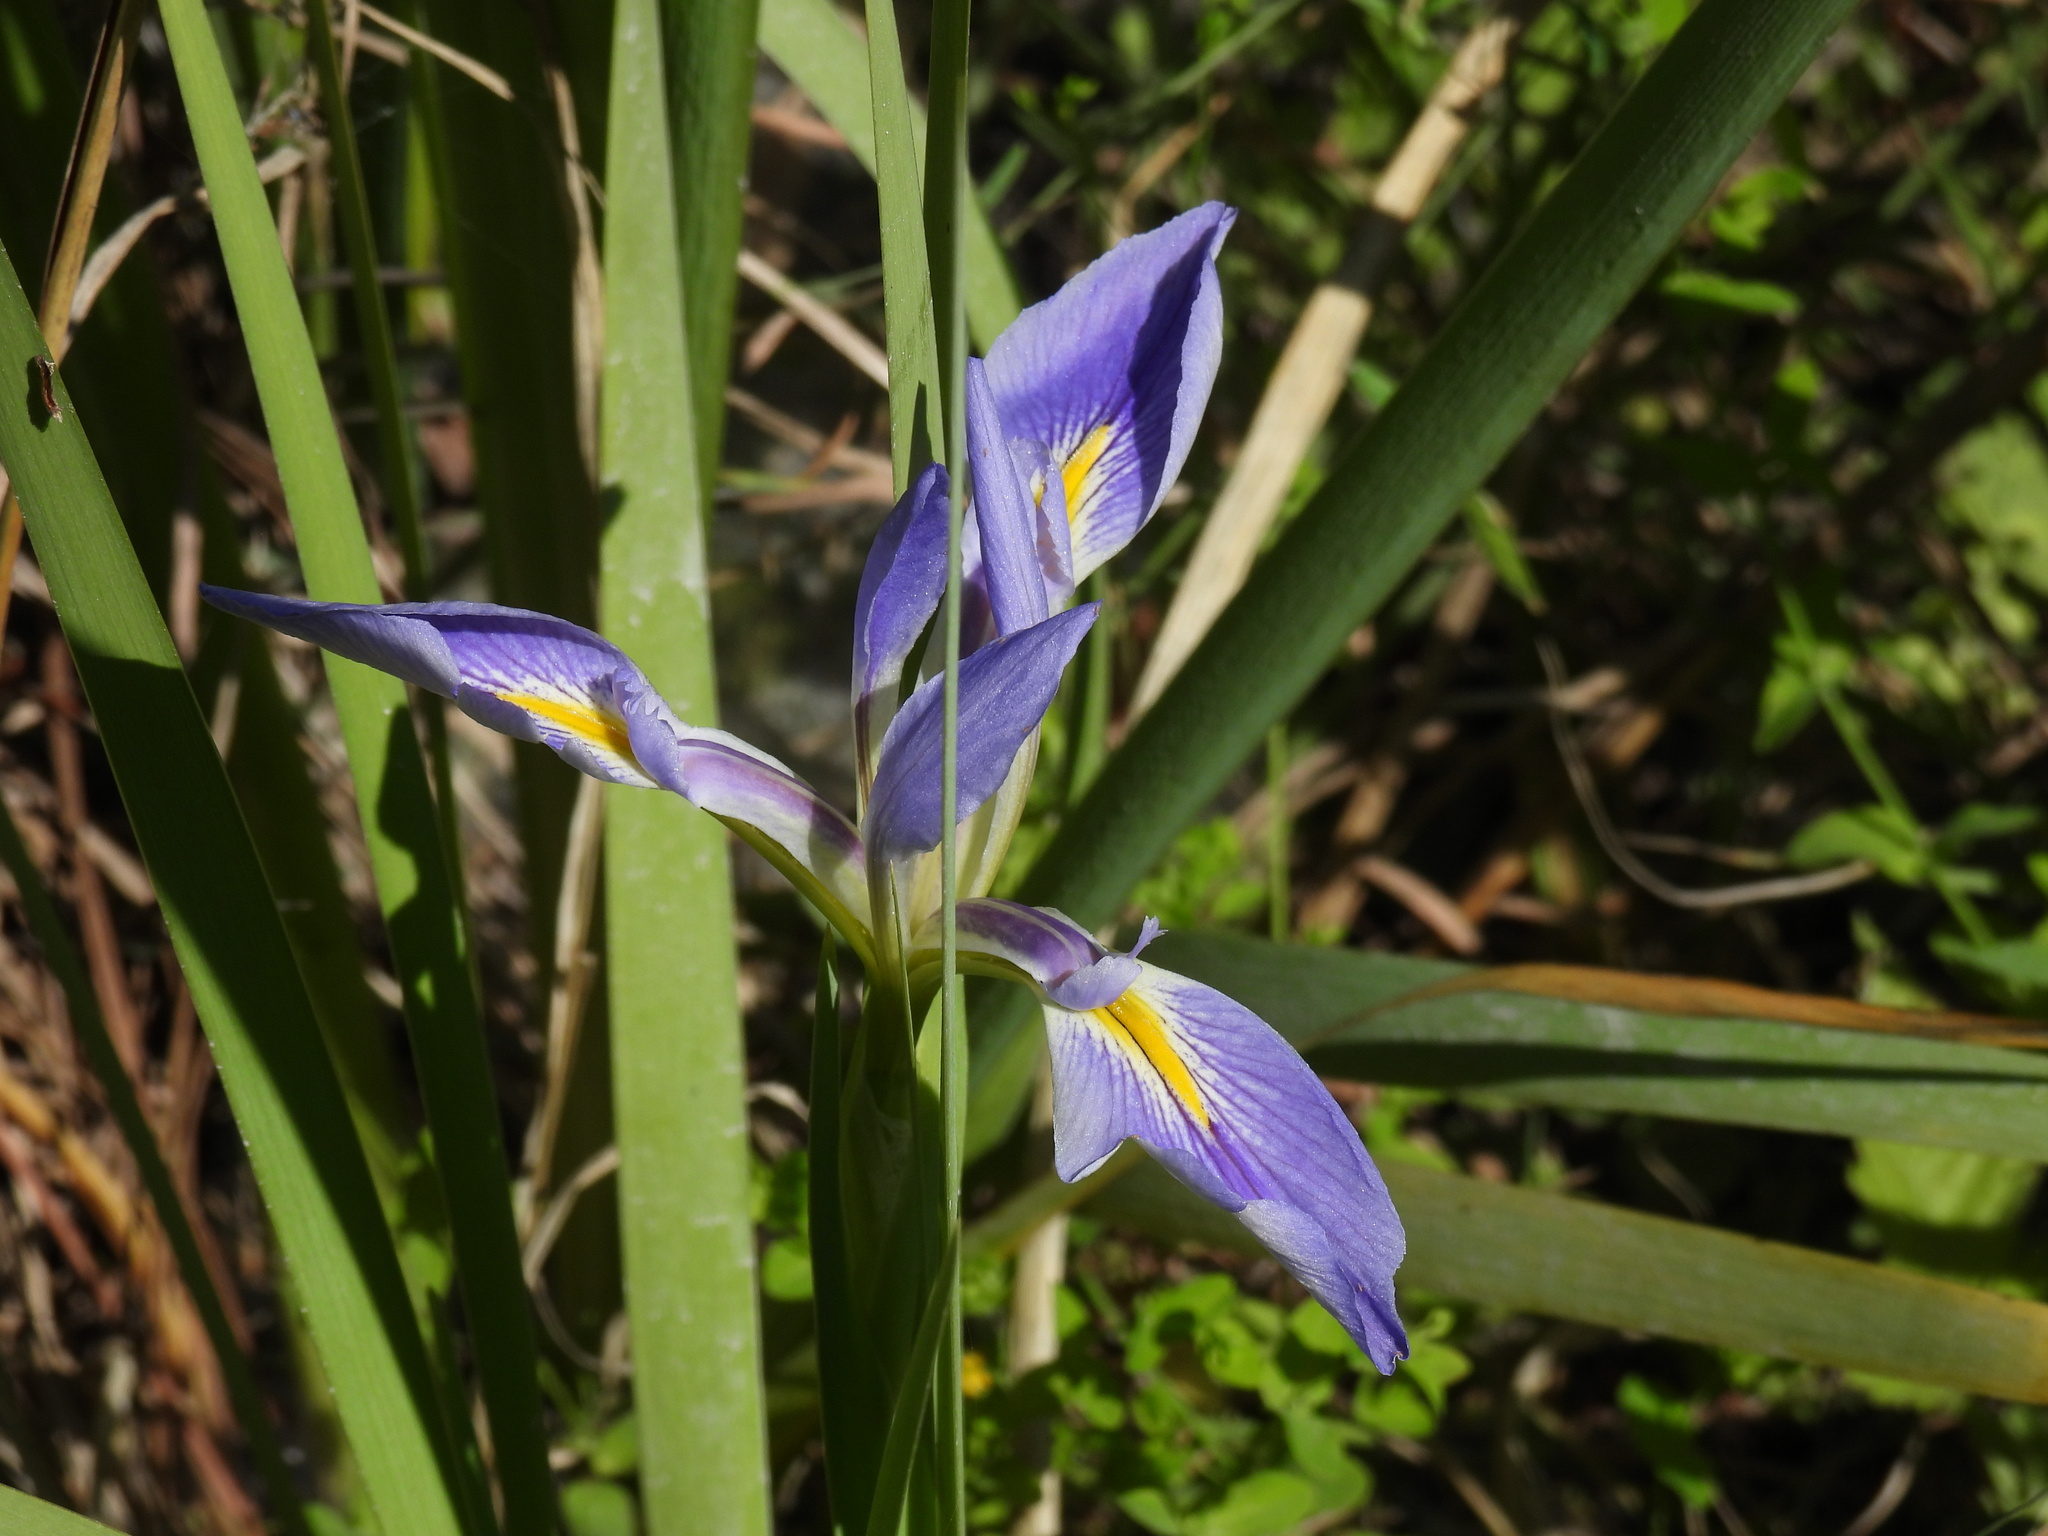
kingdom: Plantae
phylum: Tracheophyta
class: Liliopsida
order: Asparagales
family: Iridaceae
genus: Iris
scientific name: Iris savannarum
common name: Prairie iris
